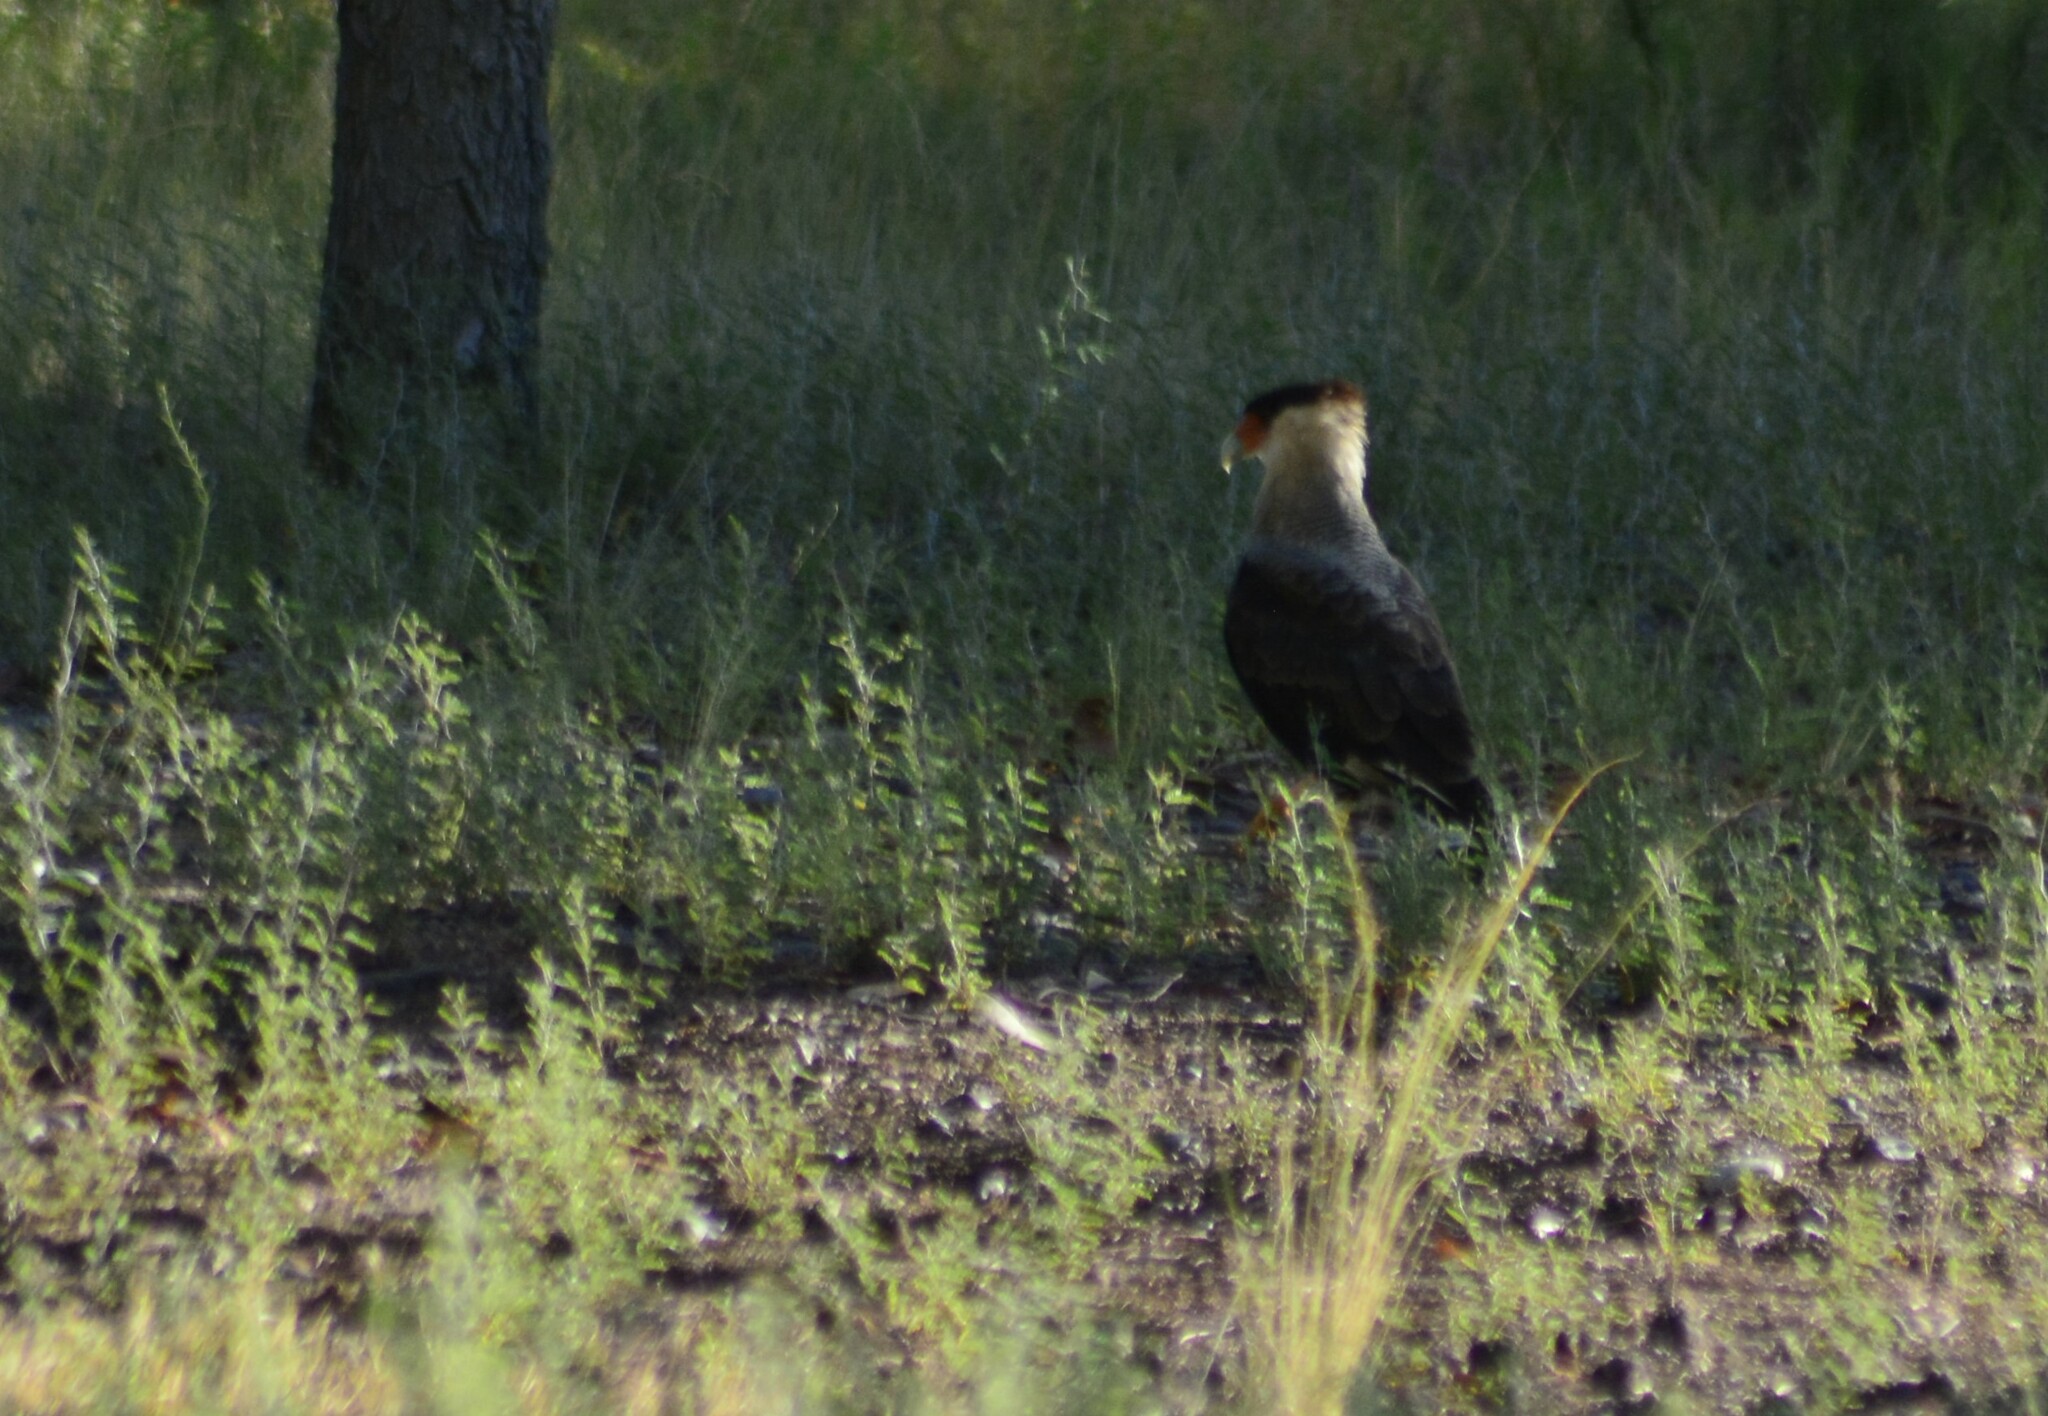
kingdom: Animalia
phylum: Chordata
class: Aves
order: Falconiformes
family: Falconidae
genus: Caracara
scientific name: Caracara plancus
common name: Southern caracara
